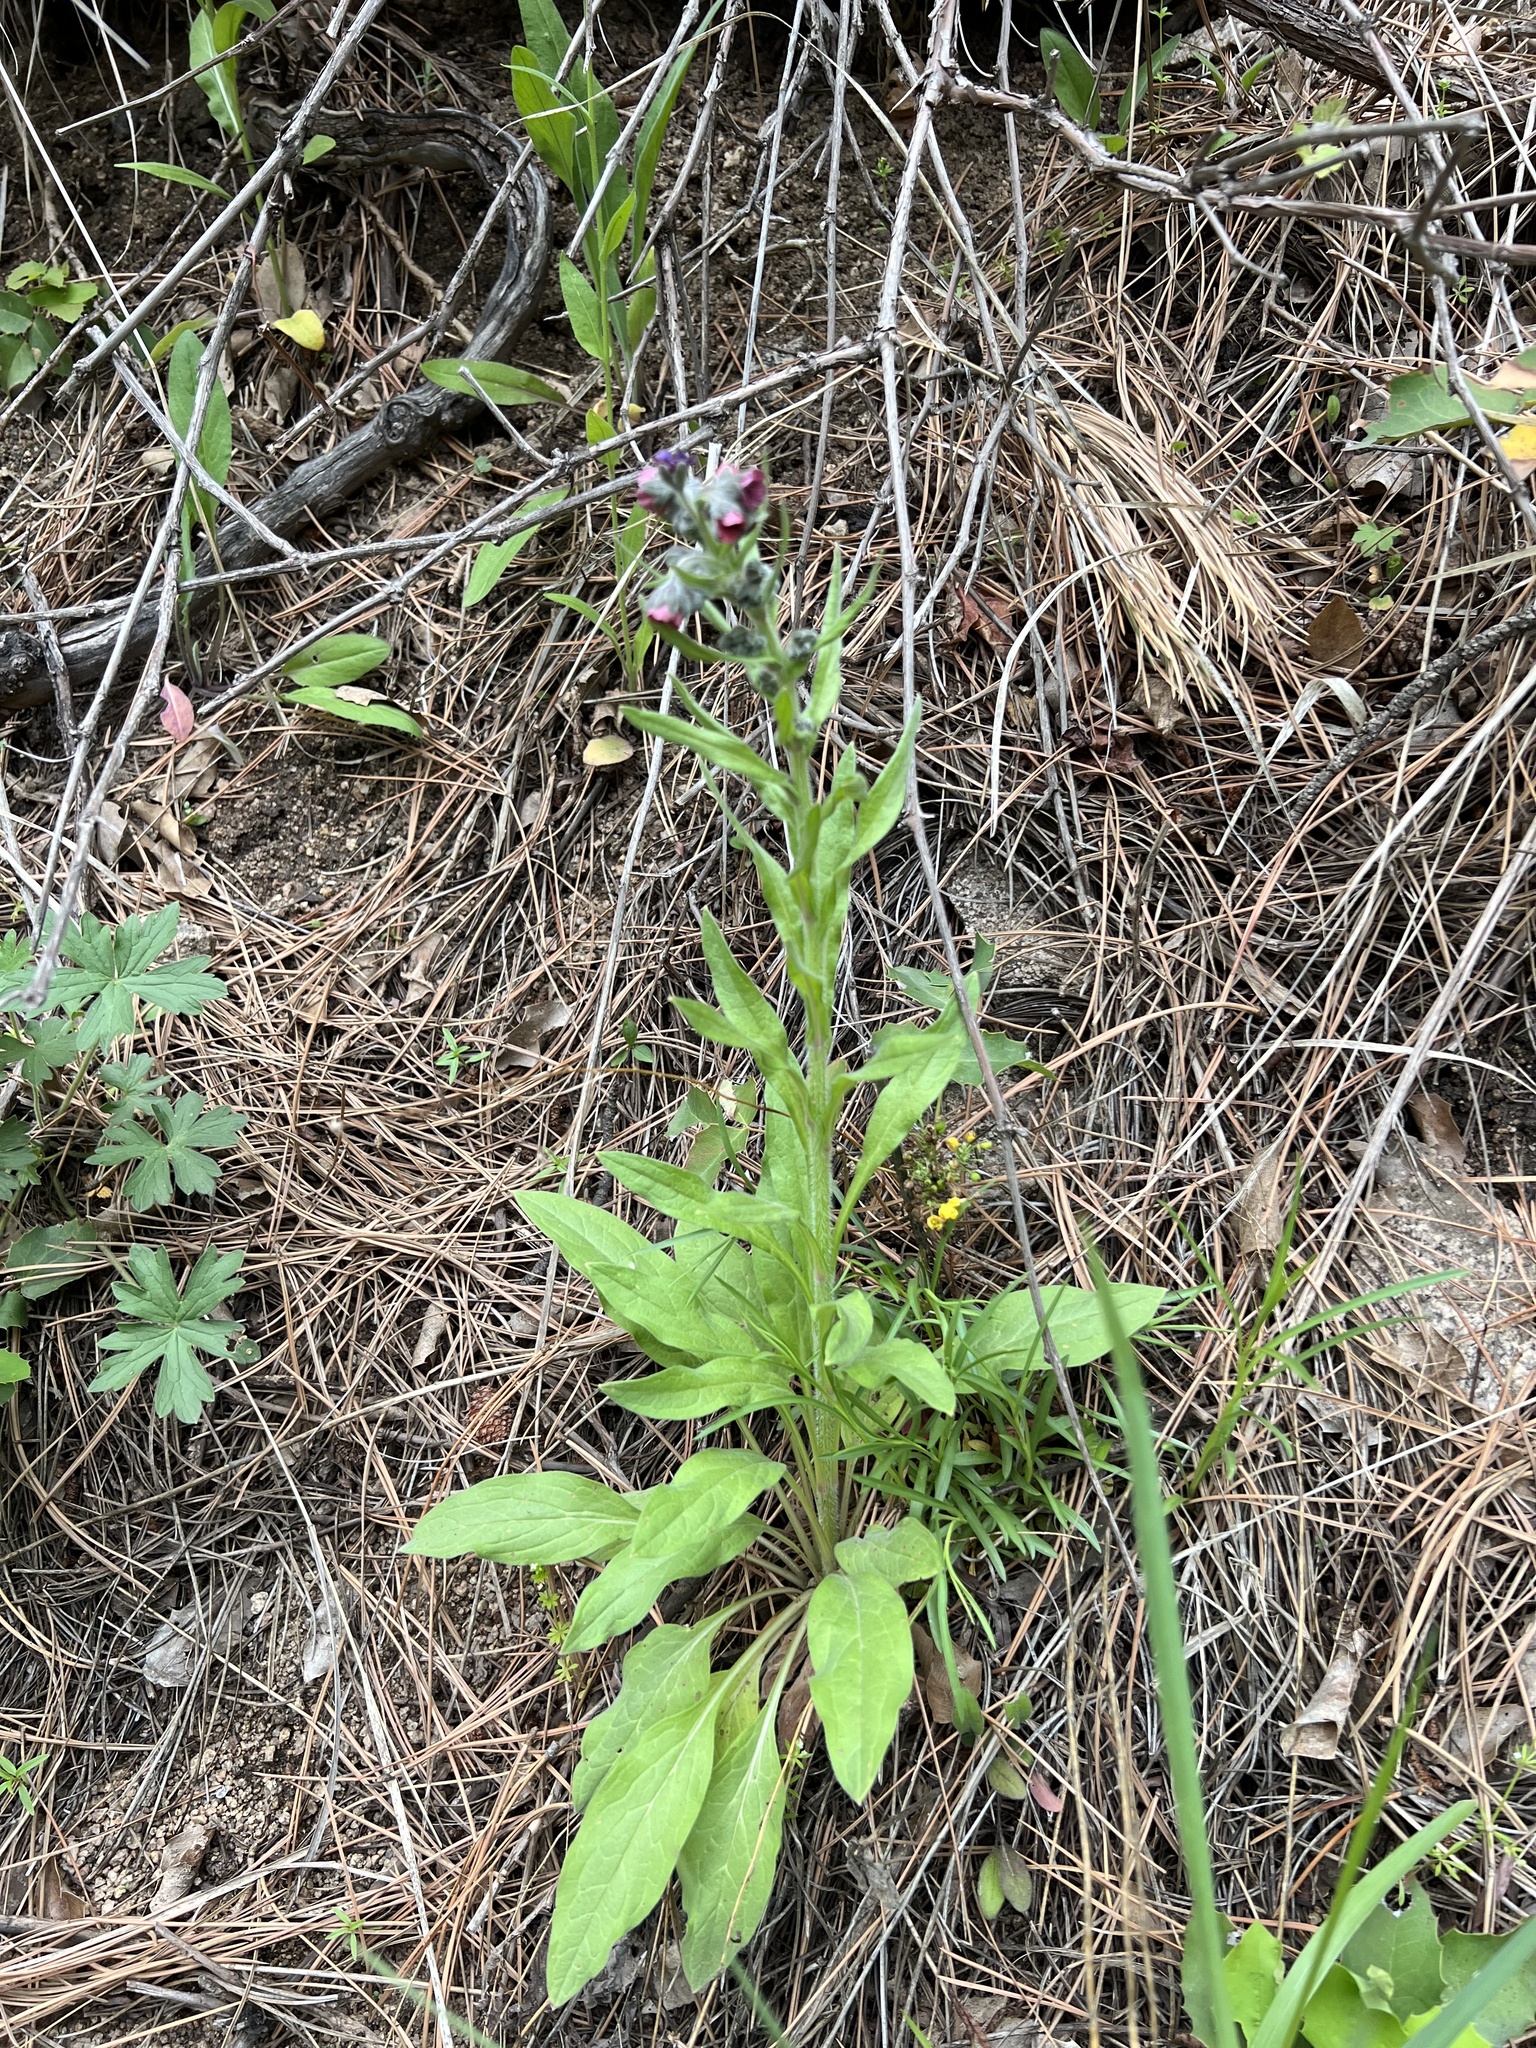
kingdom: Plantae
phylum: Tracheophyta
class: Magnoliopsida
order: Boraginales
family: Boraginaceae
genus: Cynoglossum
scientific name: Cynoglossum officinale
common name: Hound's-tongue
